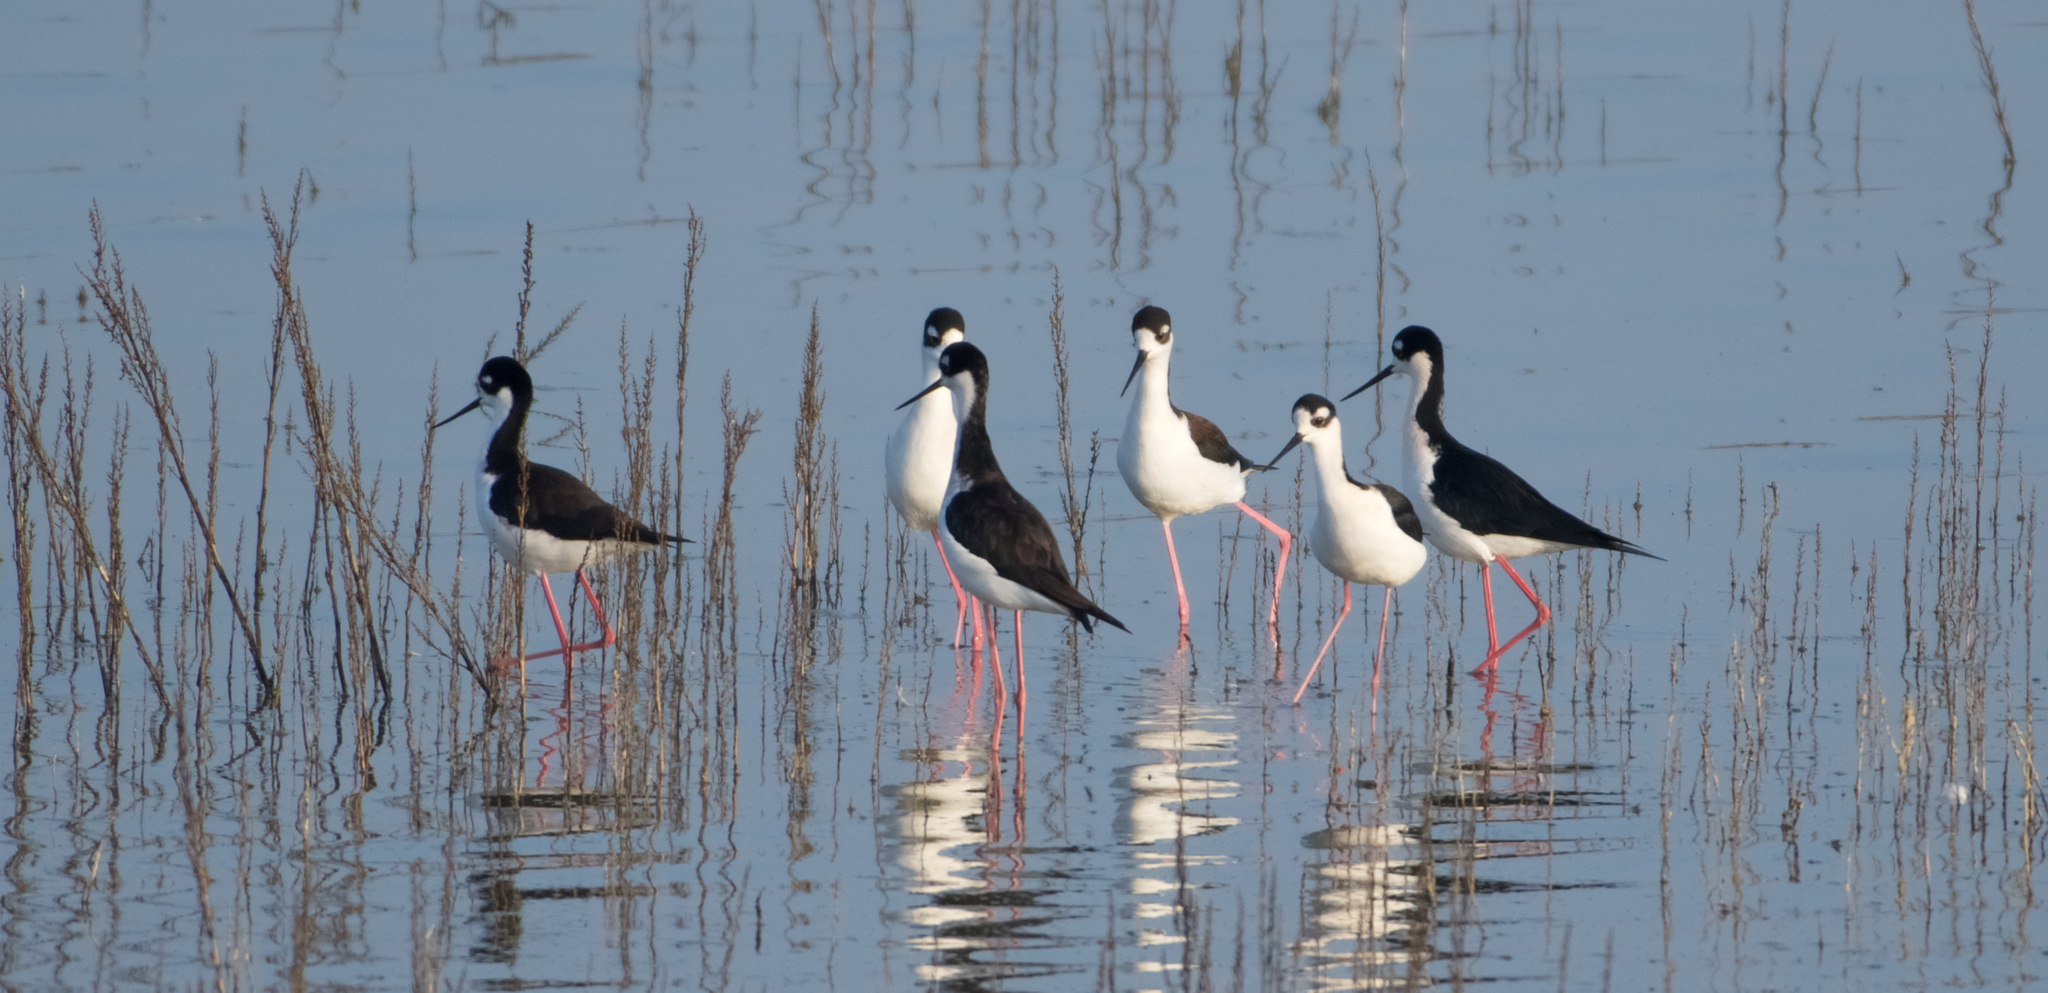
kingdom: Animalia
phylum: Chordata
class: Aves
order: Charadriiformes
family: Recurvirostridae
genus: Himantopus
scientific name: Himantopus mexicanus
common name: Black-necked stilt
